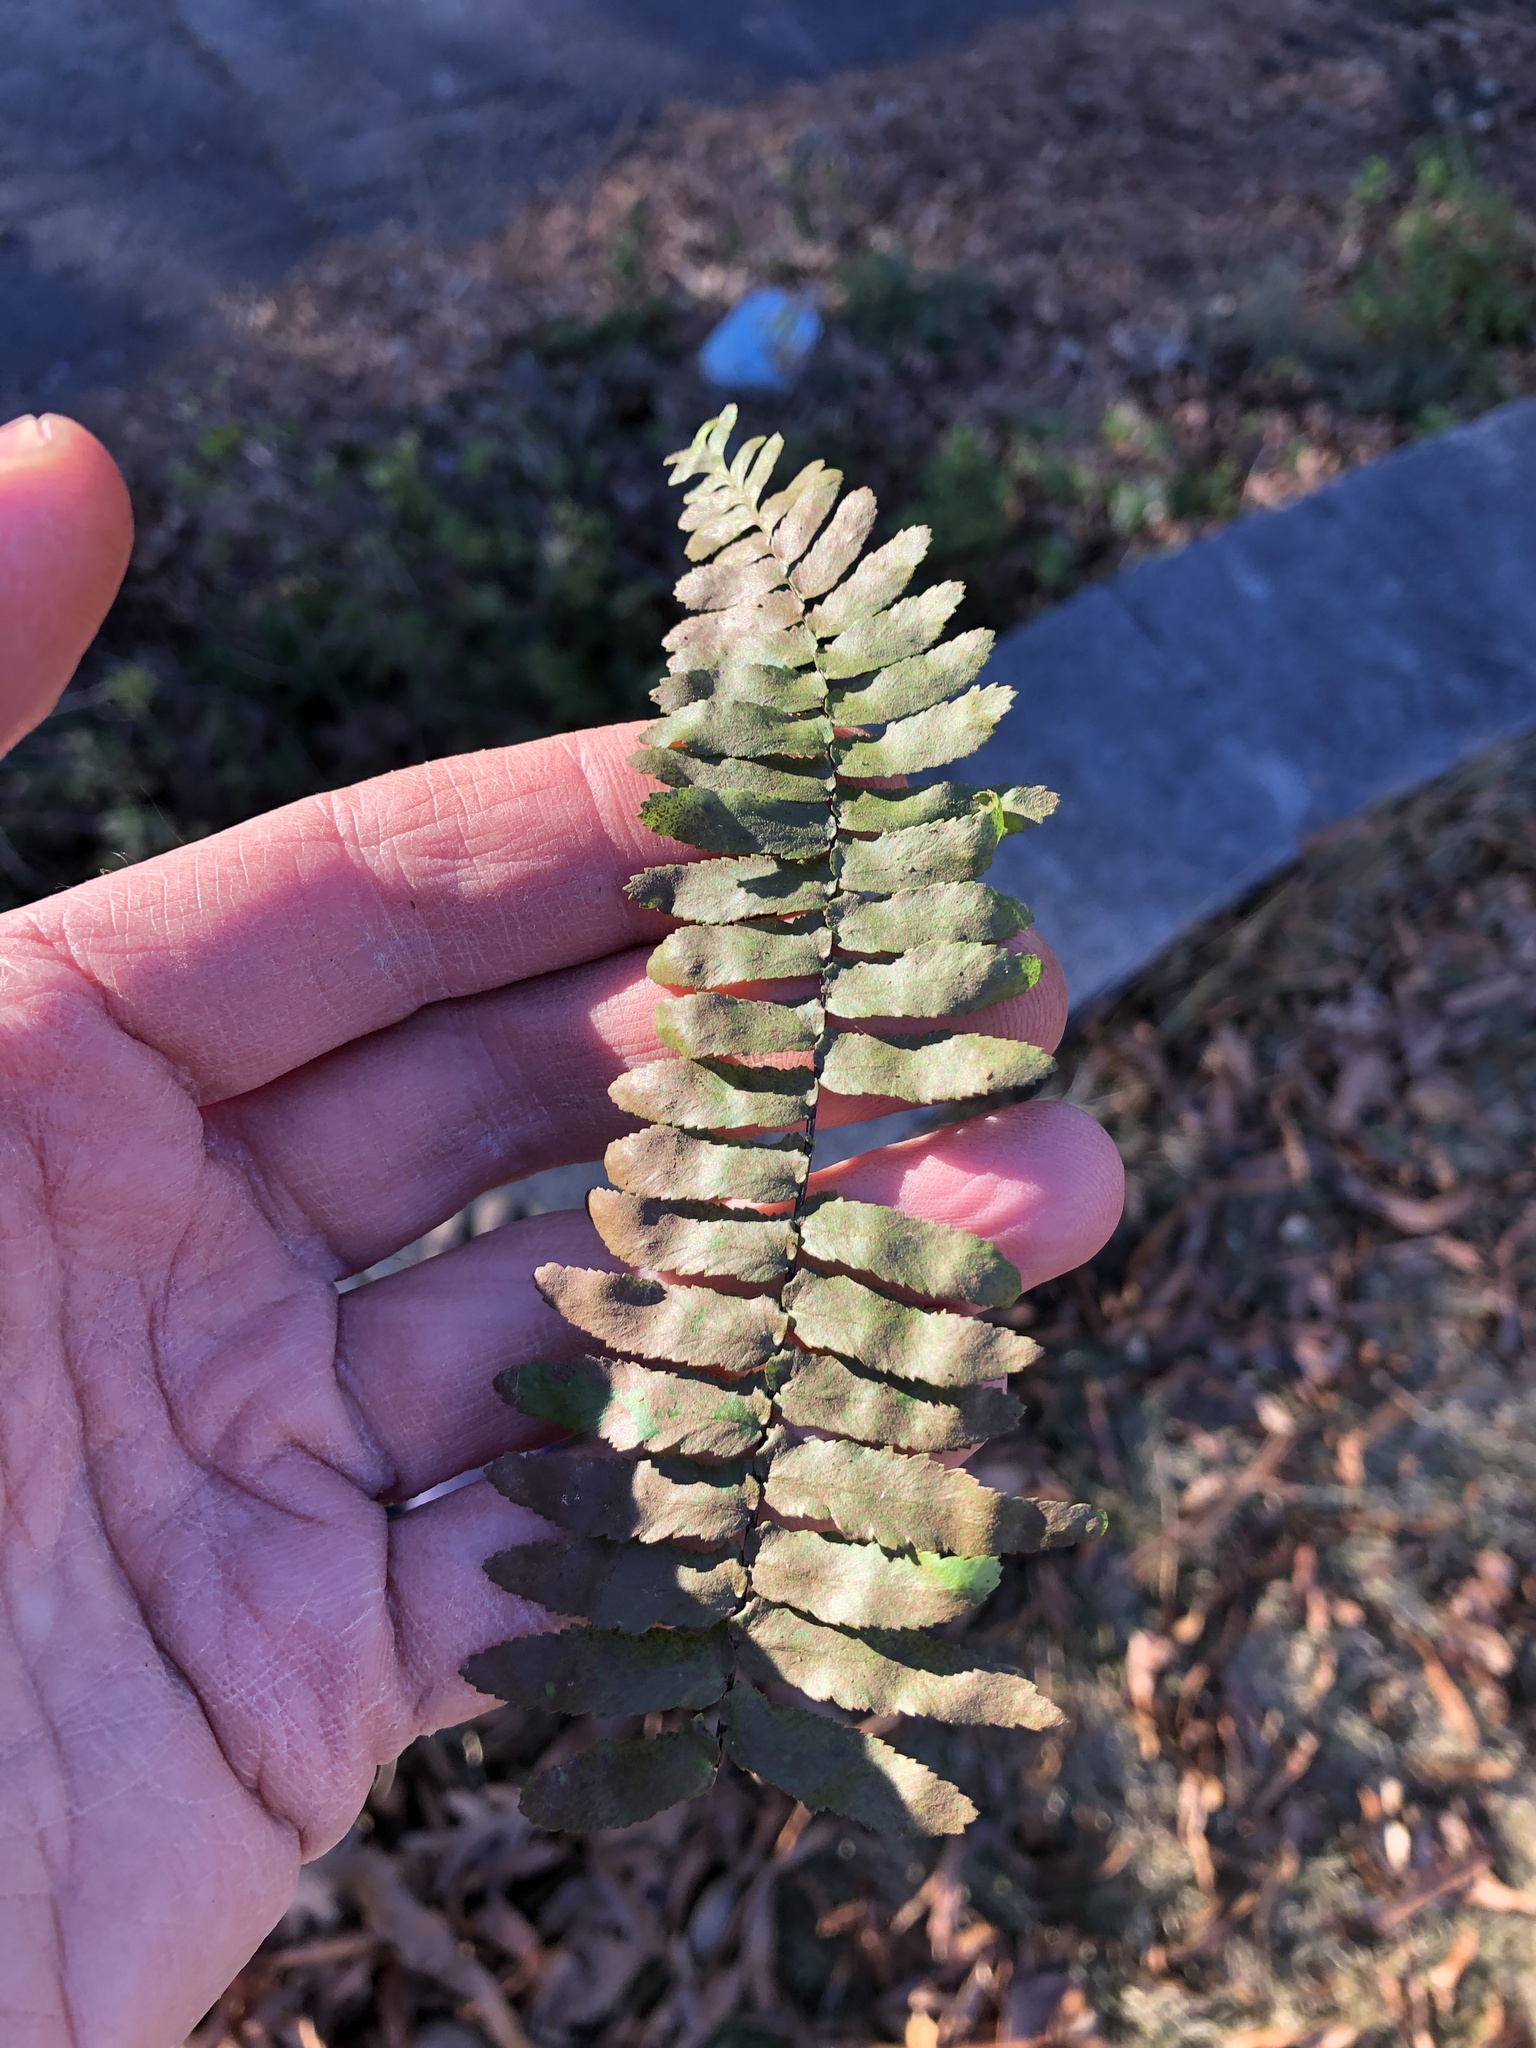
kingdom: Plantae
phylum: Tracheophyta
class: Polypodiopsida
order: Polypodiales
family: Aspleniaceae
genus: Asplenium
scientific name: Asplenium platyneuron
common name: Ebony spleenwort
